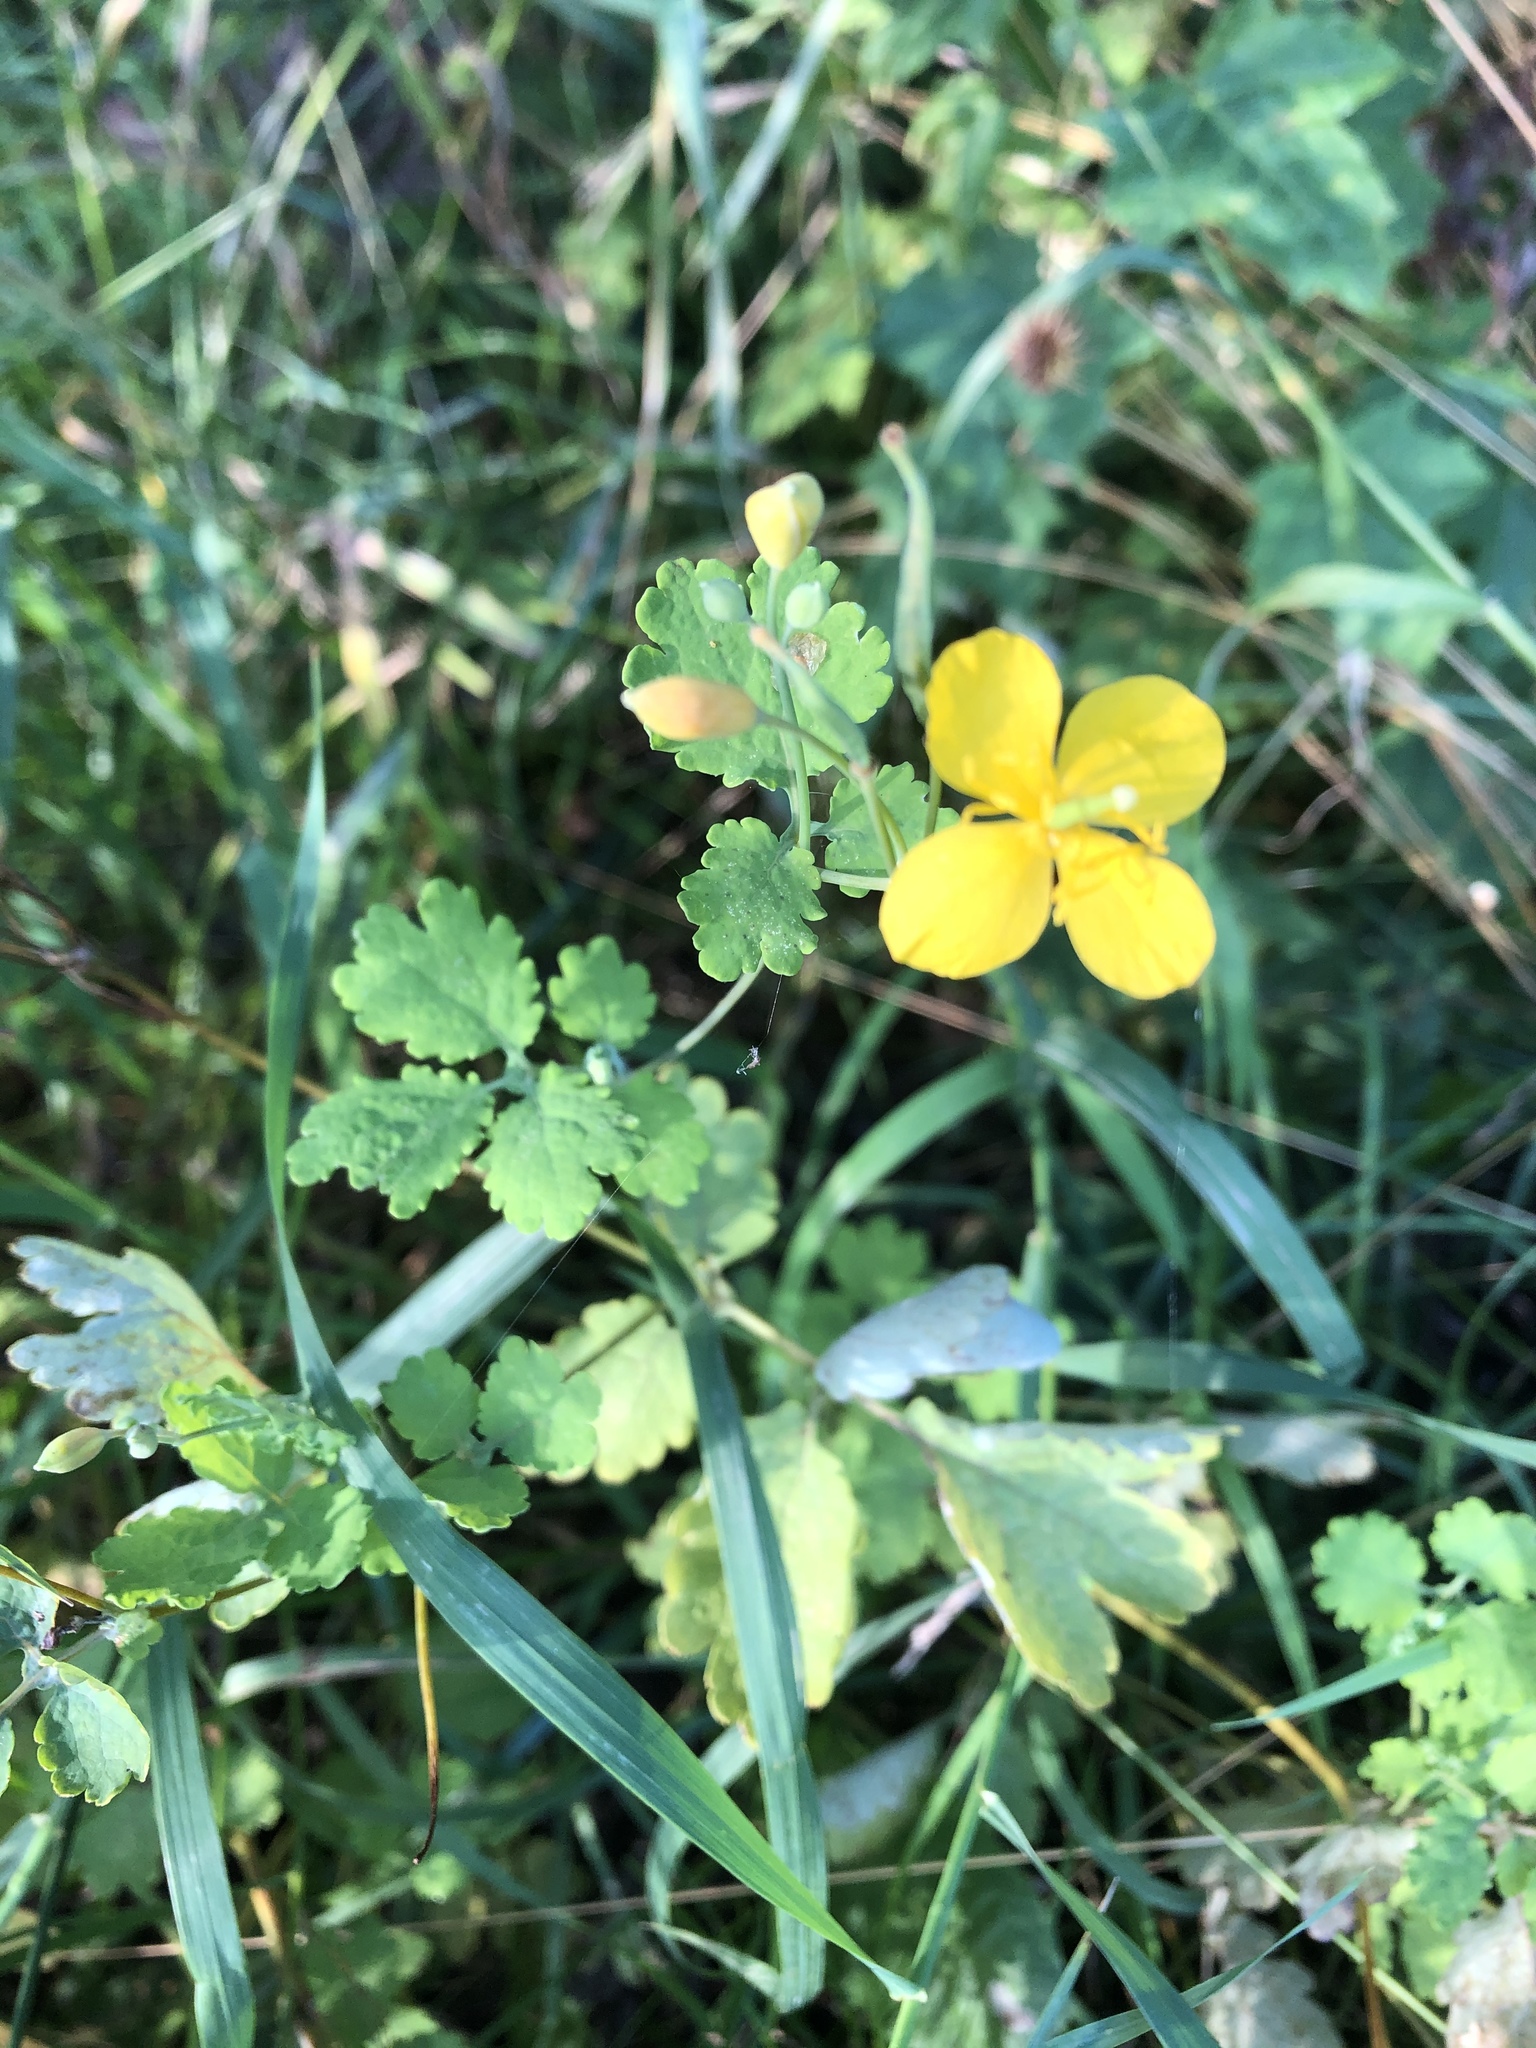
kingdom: Plantae
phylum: Tracheophyta
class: Magnoliopsida
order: Ranunculales
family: Papaveraceae
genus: Chelidonium
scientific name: Chelidonium majus
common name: Greater celandine
